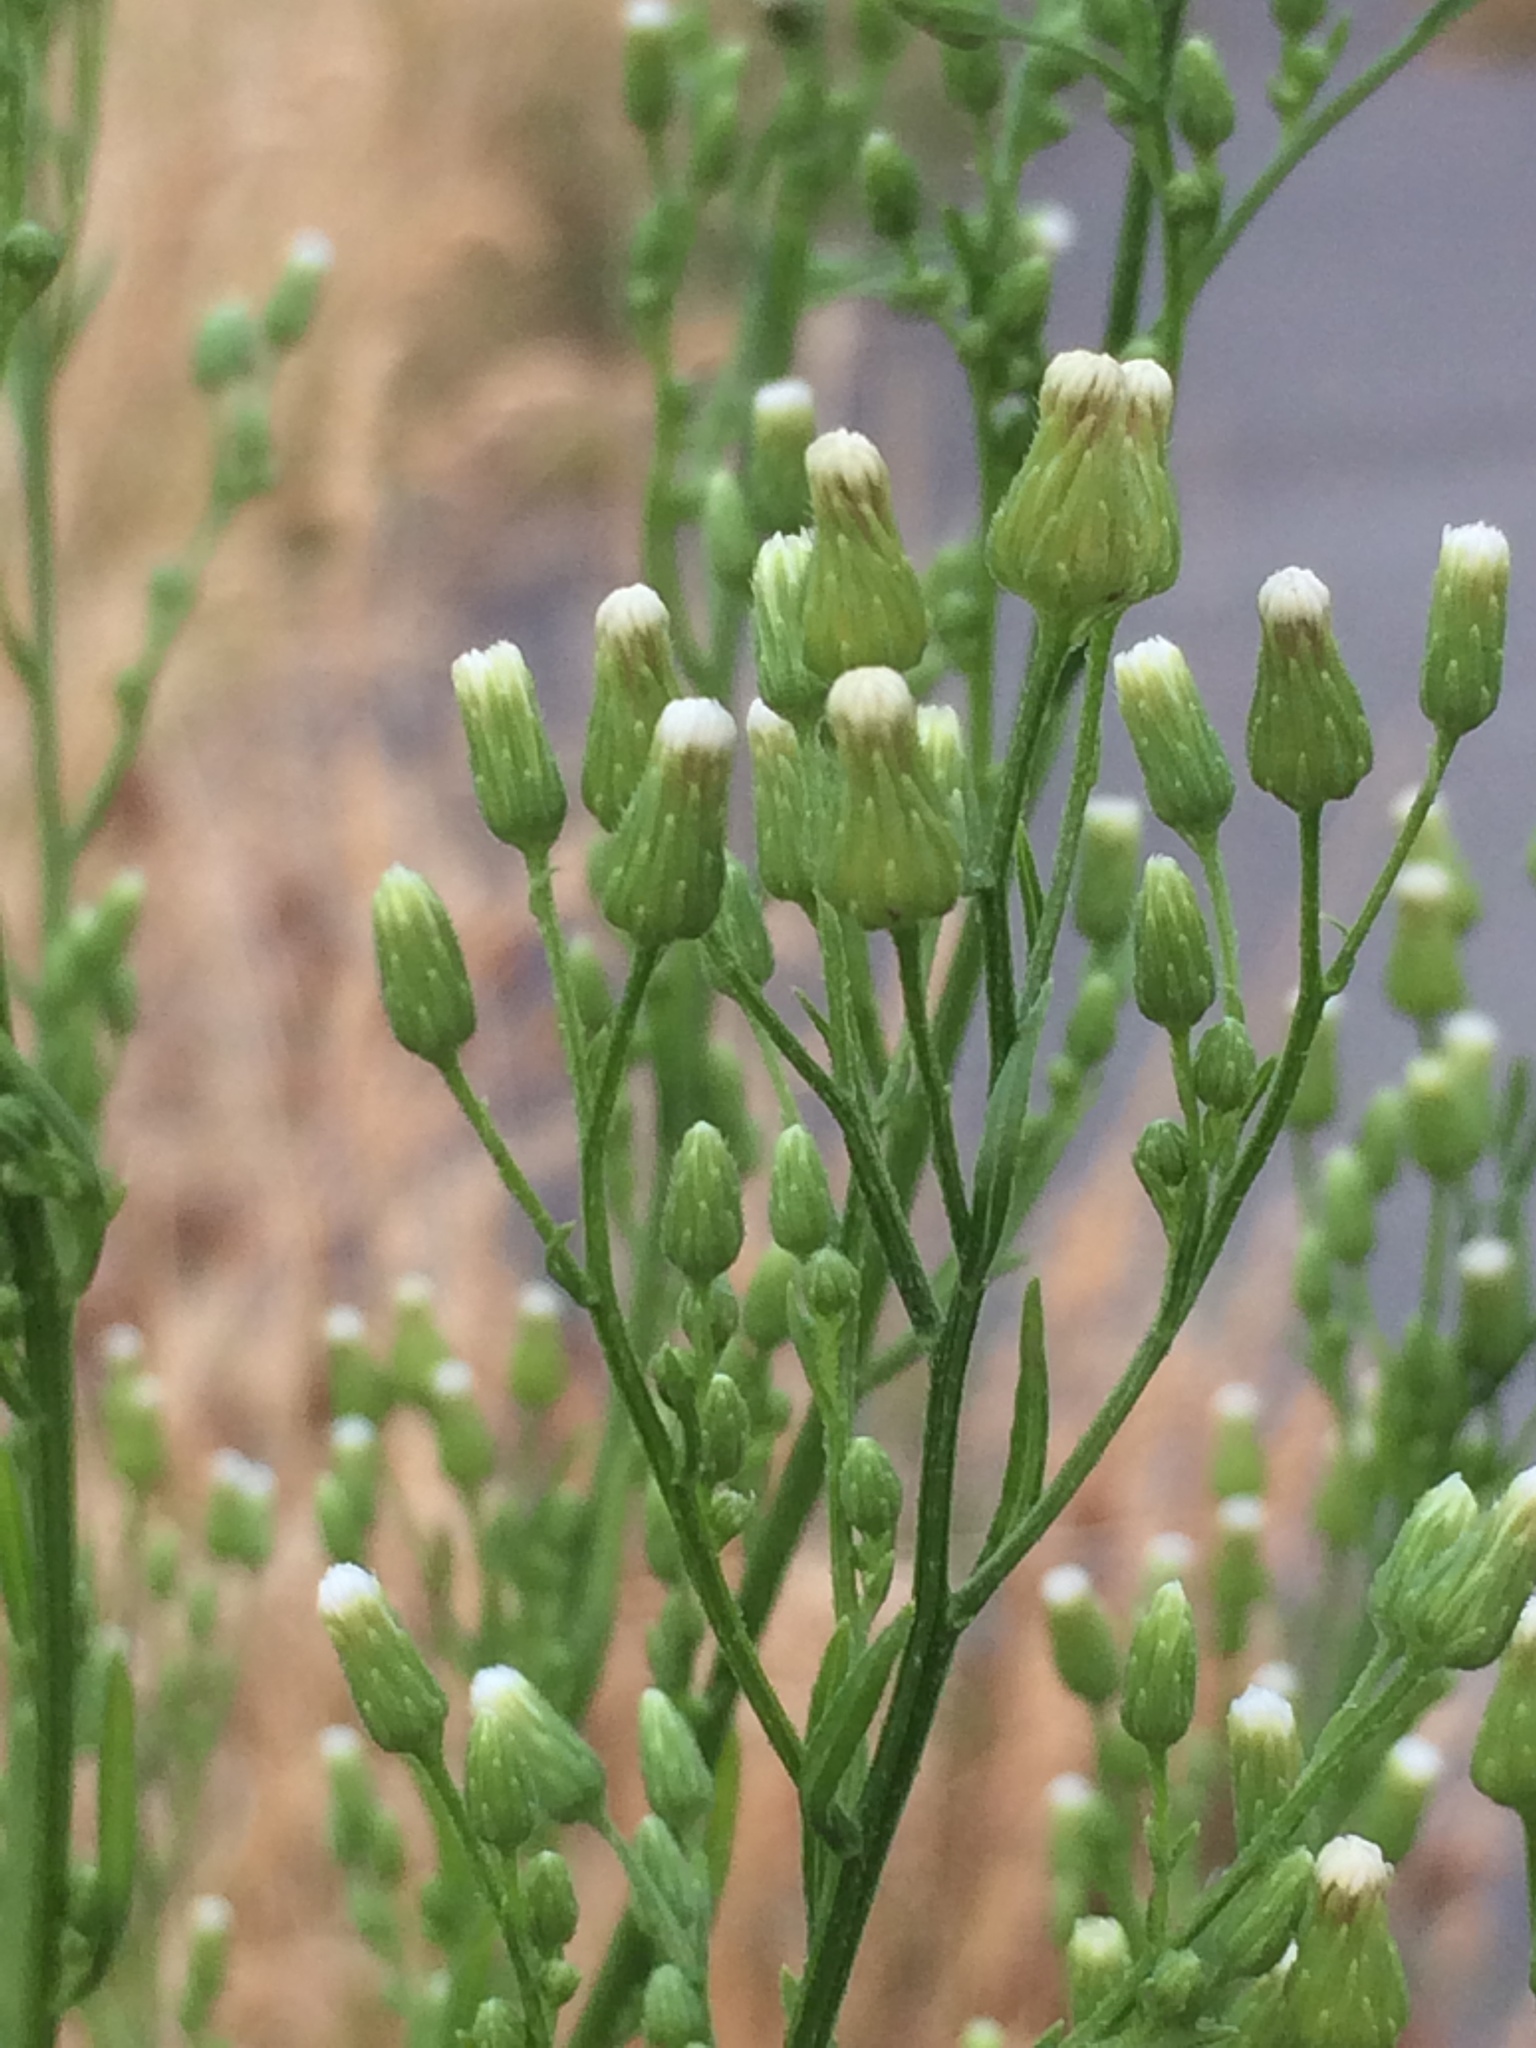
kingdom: Plantae
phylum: Tracheophyta
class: Magnoliopsida
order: Asterales
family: Asteraceae
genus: Erigeron
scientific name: Erigeron canadensis
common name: Canadian fleabane
